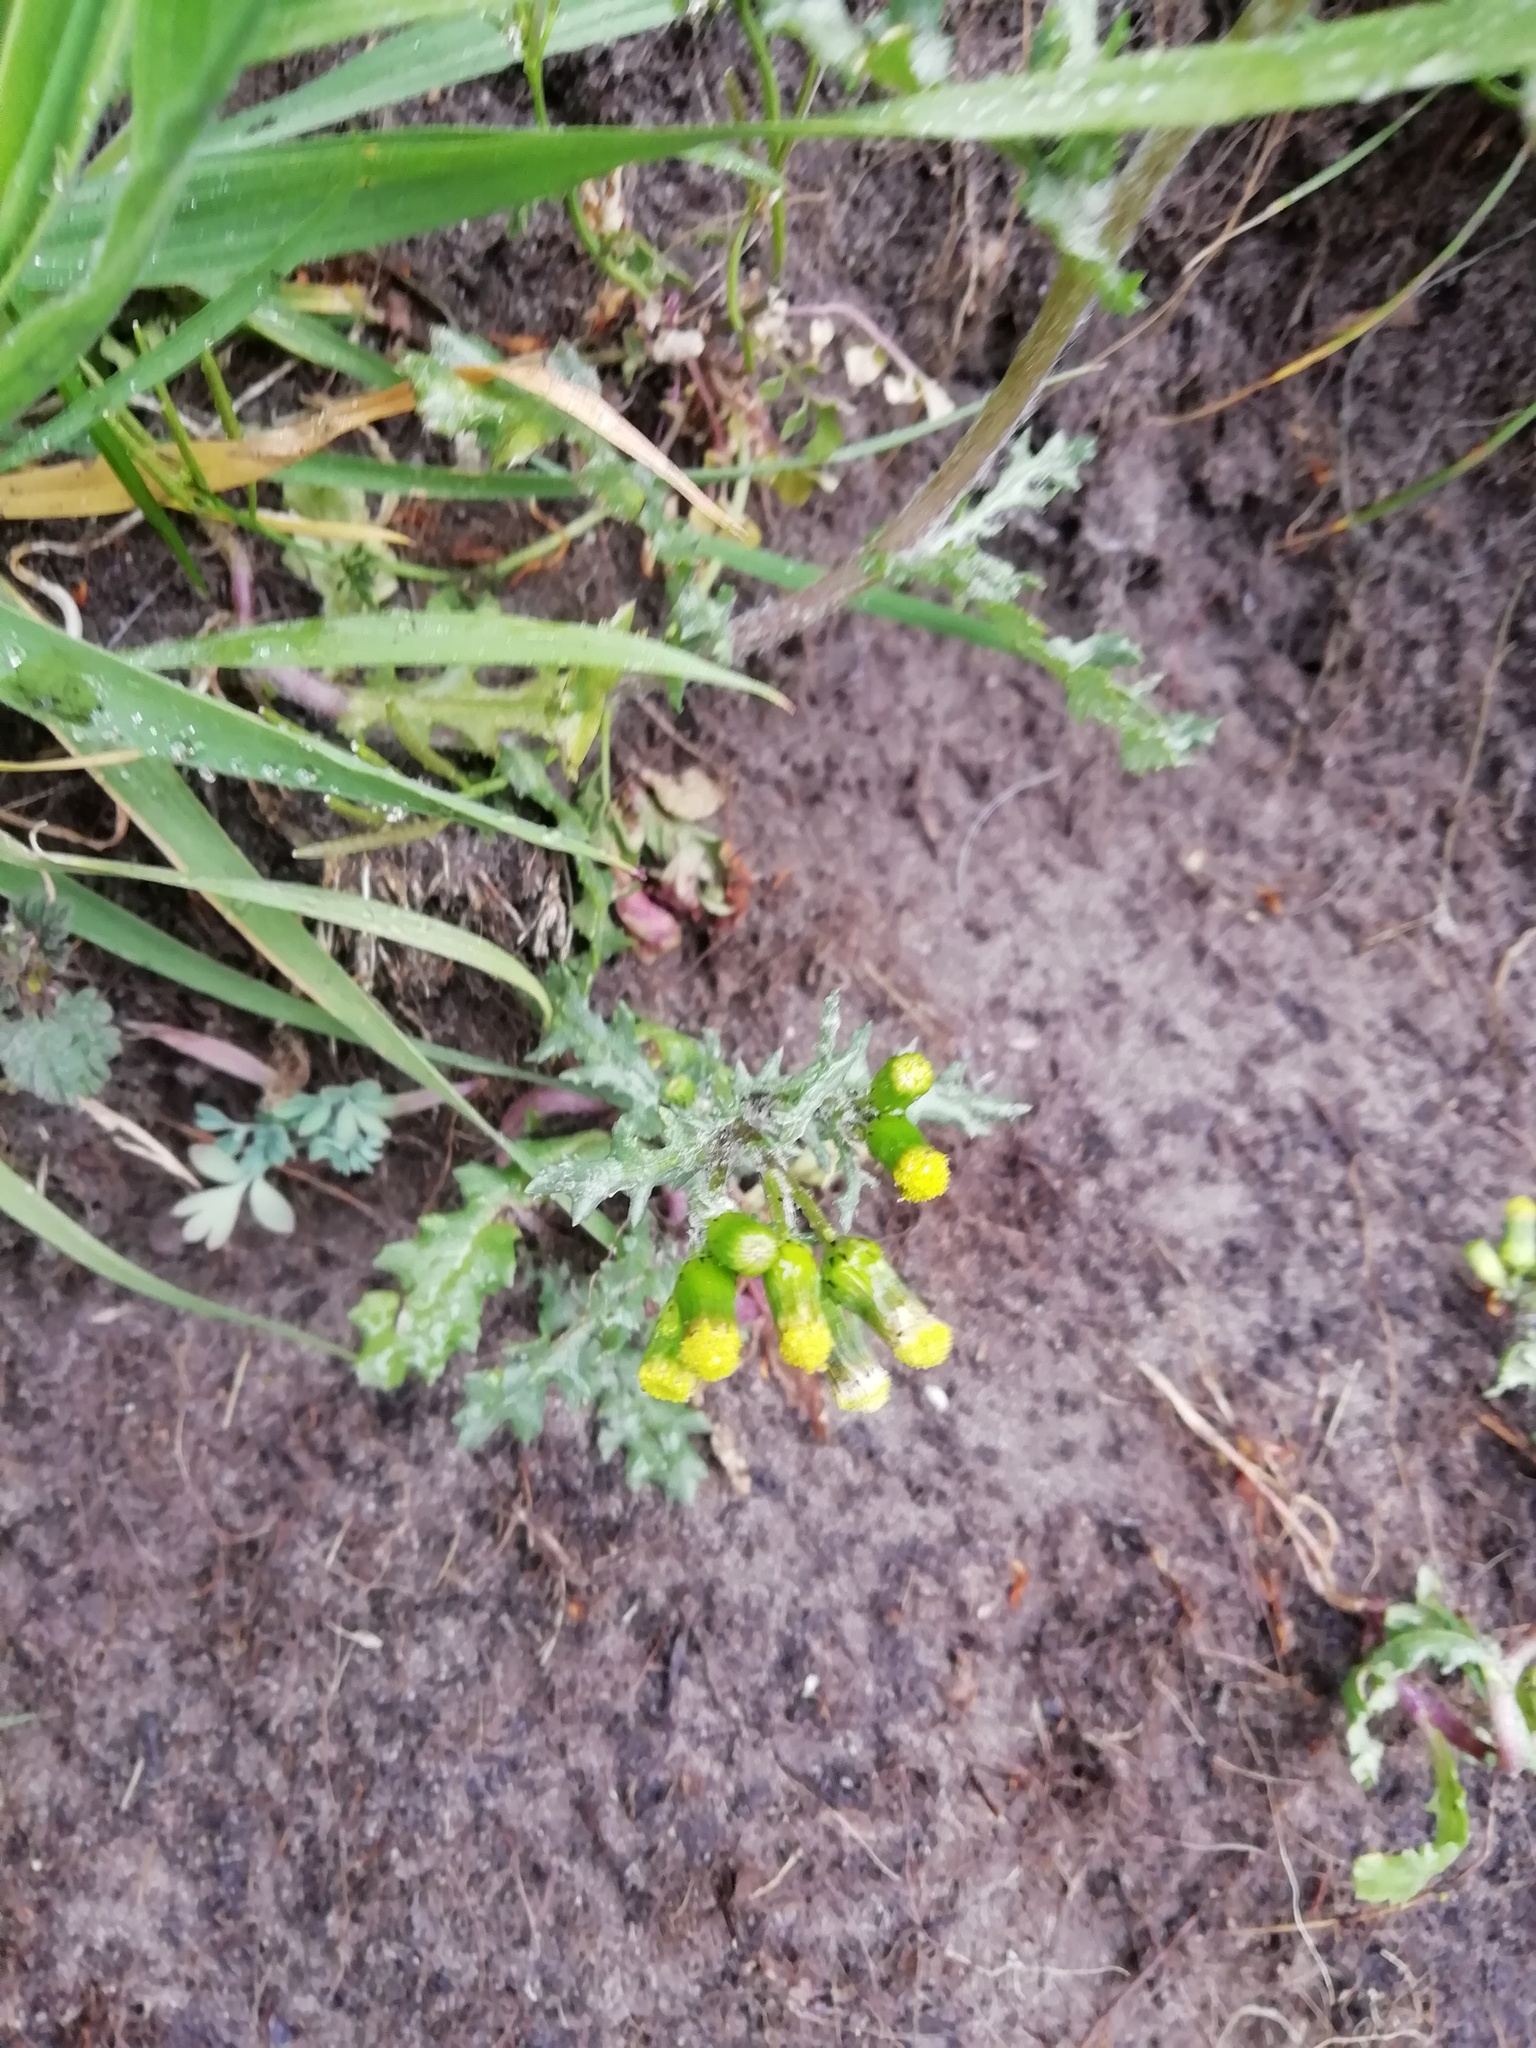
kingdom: Plantae
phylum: Tracheophyta
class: Magnoliopsida
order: Asterales
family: Asteraceae
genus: Senecio
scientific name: Senecio vulgaris
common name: Old-man-in-the-spring
